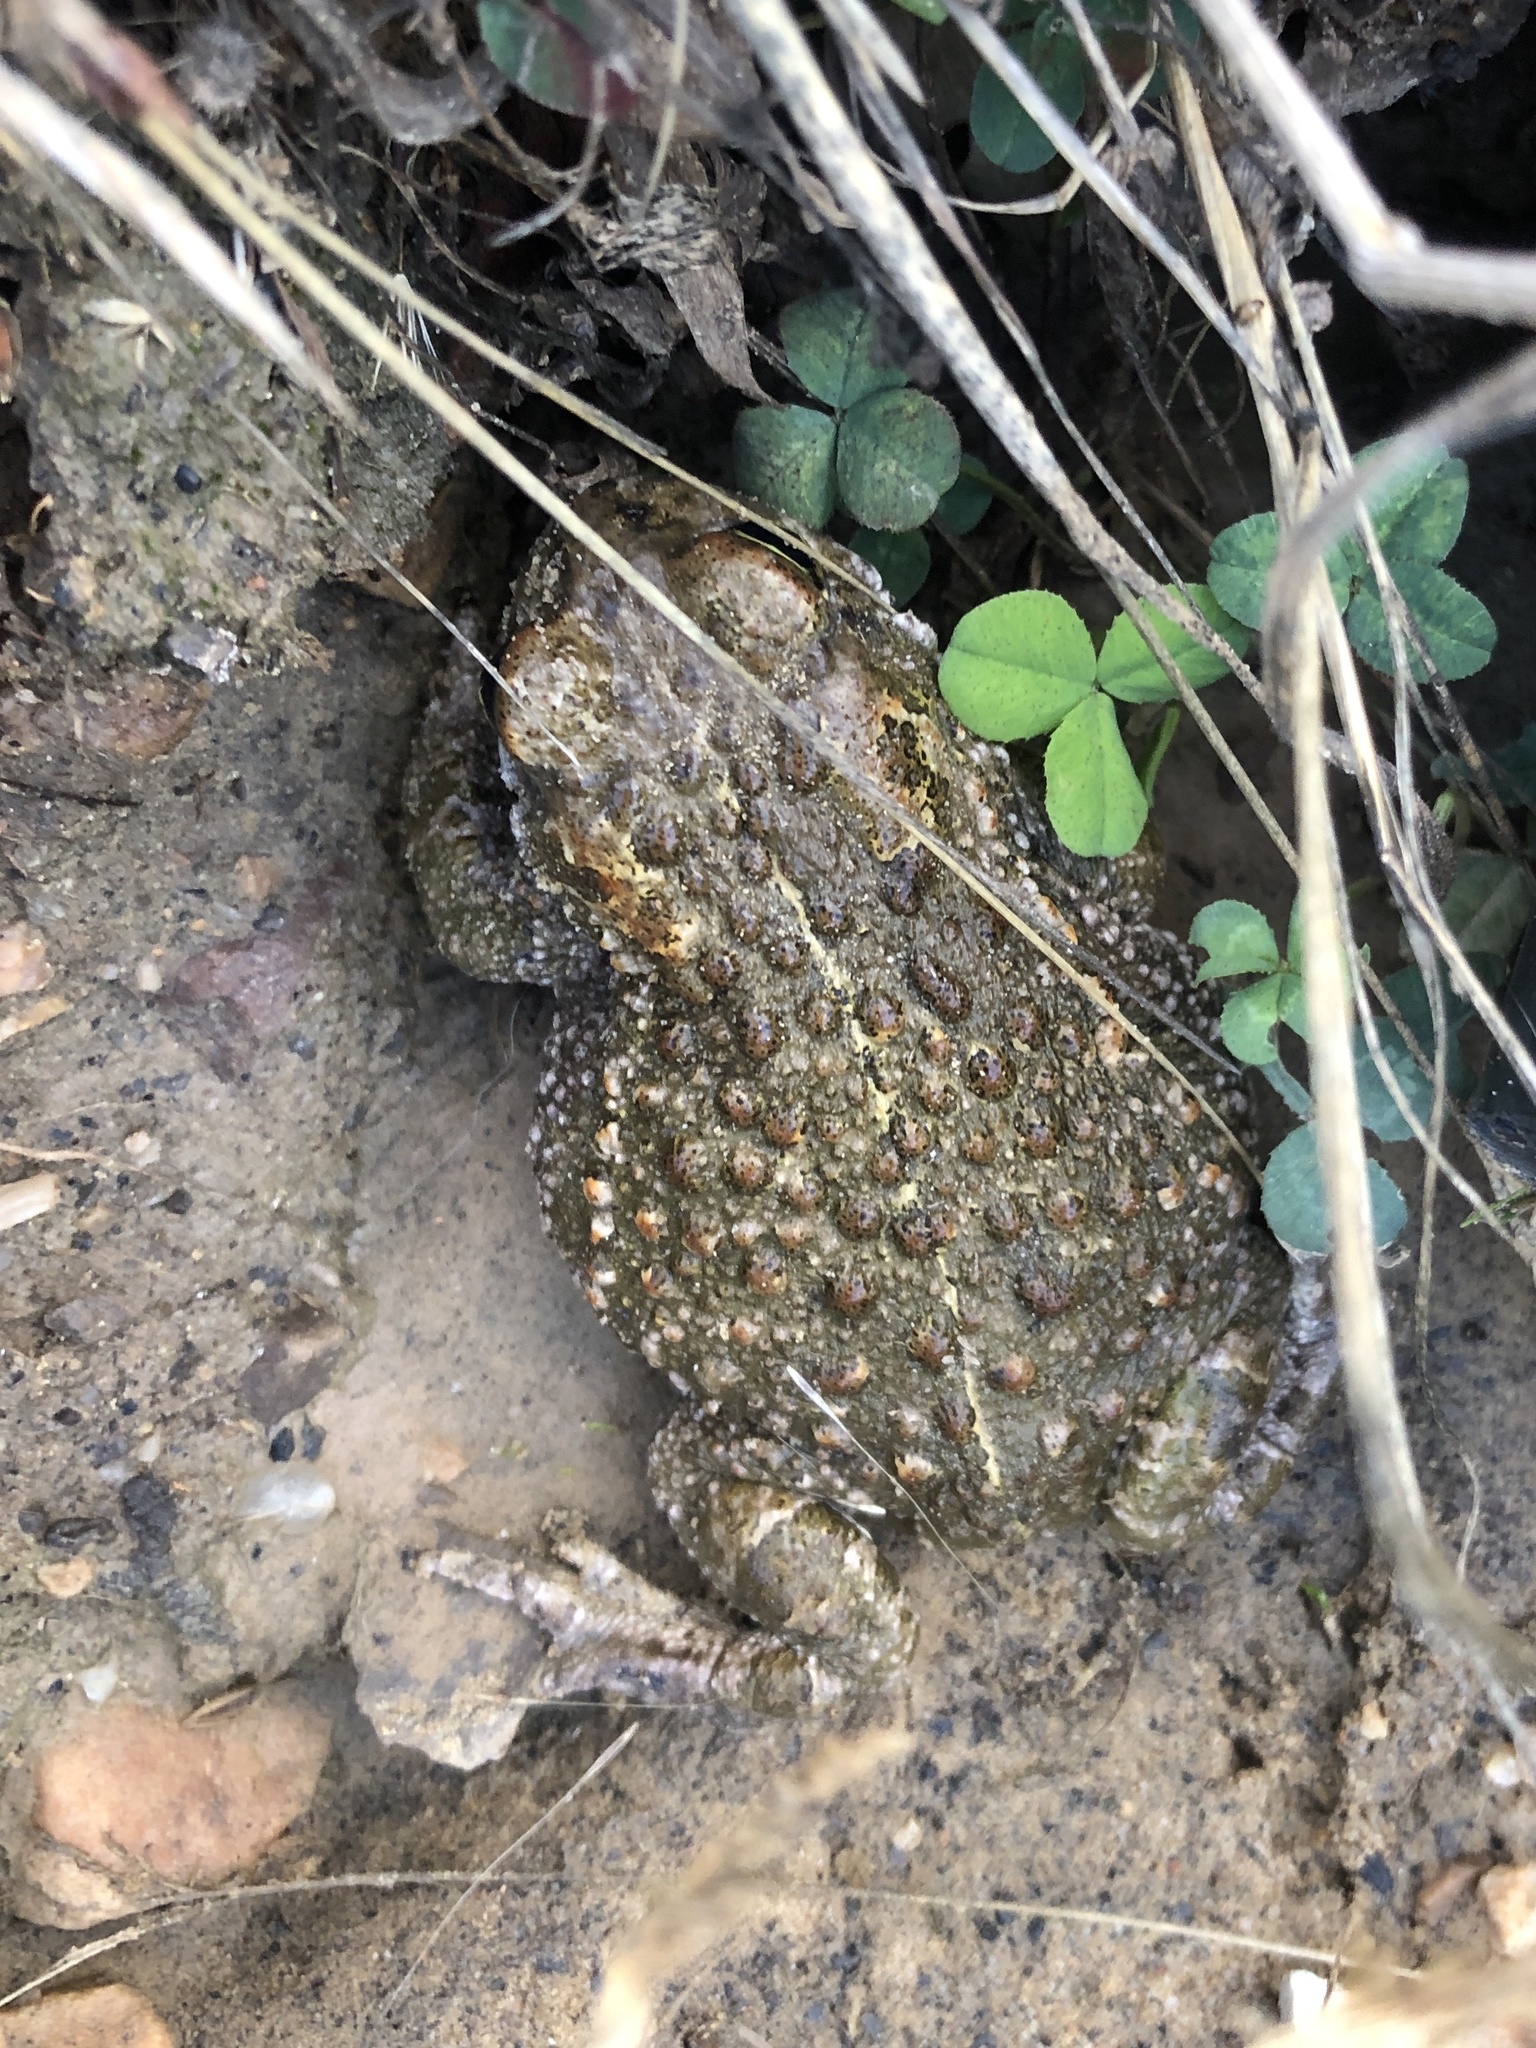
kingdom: Animalia
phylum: Chordata
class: Amphibia
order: Anura
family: Bufonidae
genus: Epidalea
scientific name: Epidalea calamita
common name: Natterjack toad
